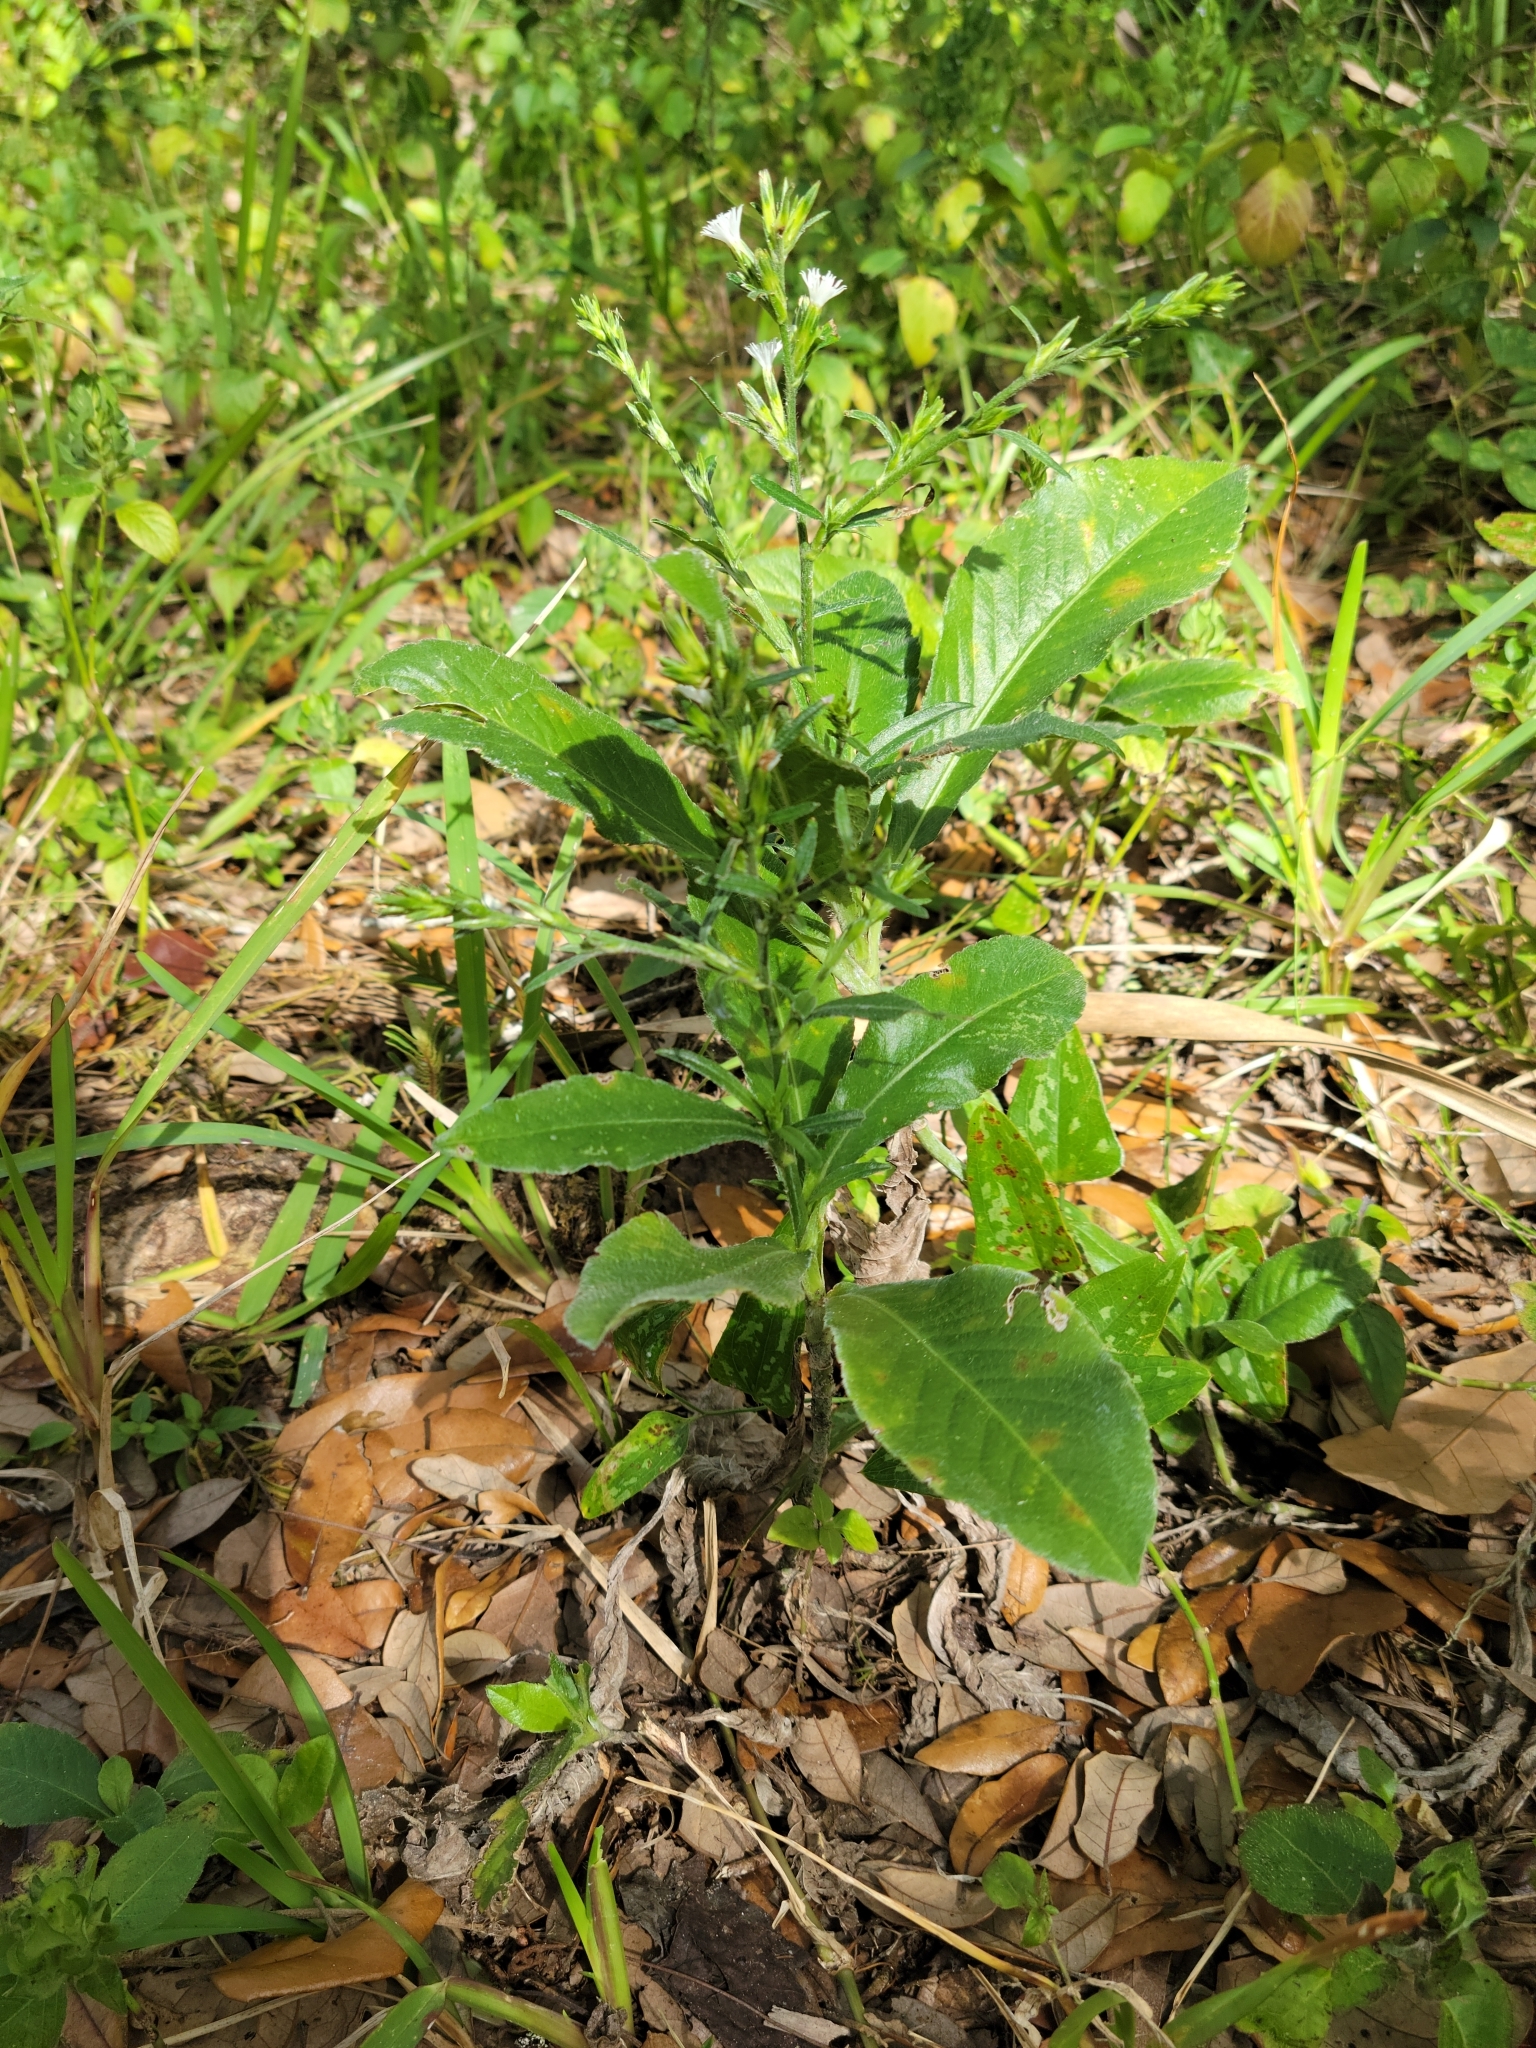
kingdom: Plantae
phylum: Tracheophyta
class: Magnoliopsida
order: Asterales
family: Asteraceae
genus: Pseudelephantopus
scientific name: Pseudelephantopus spicatus
